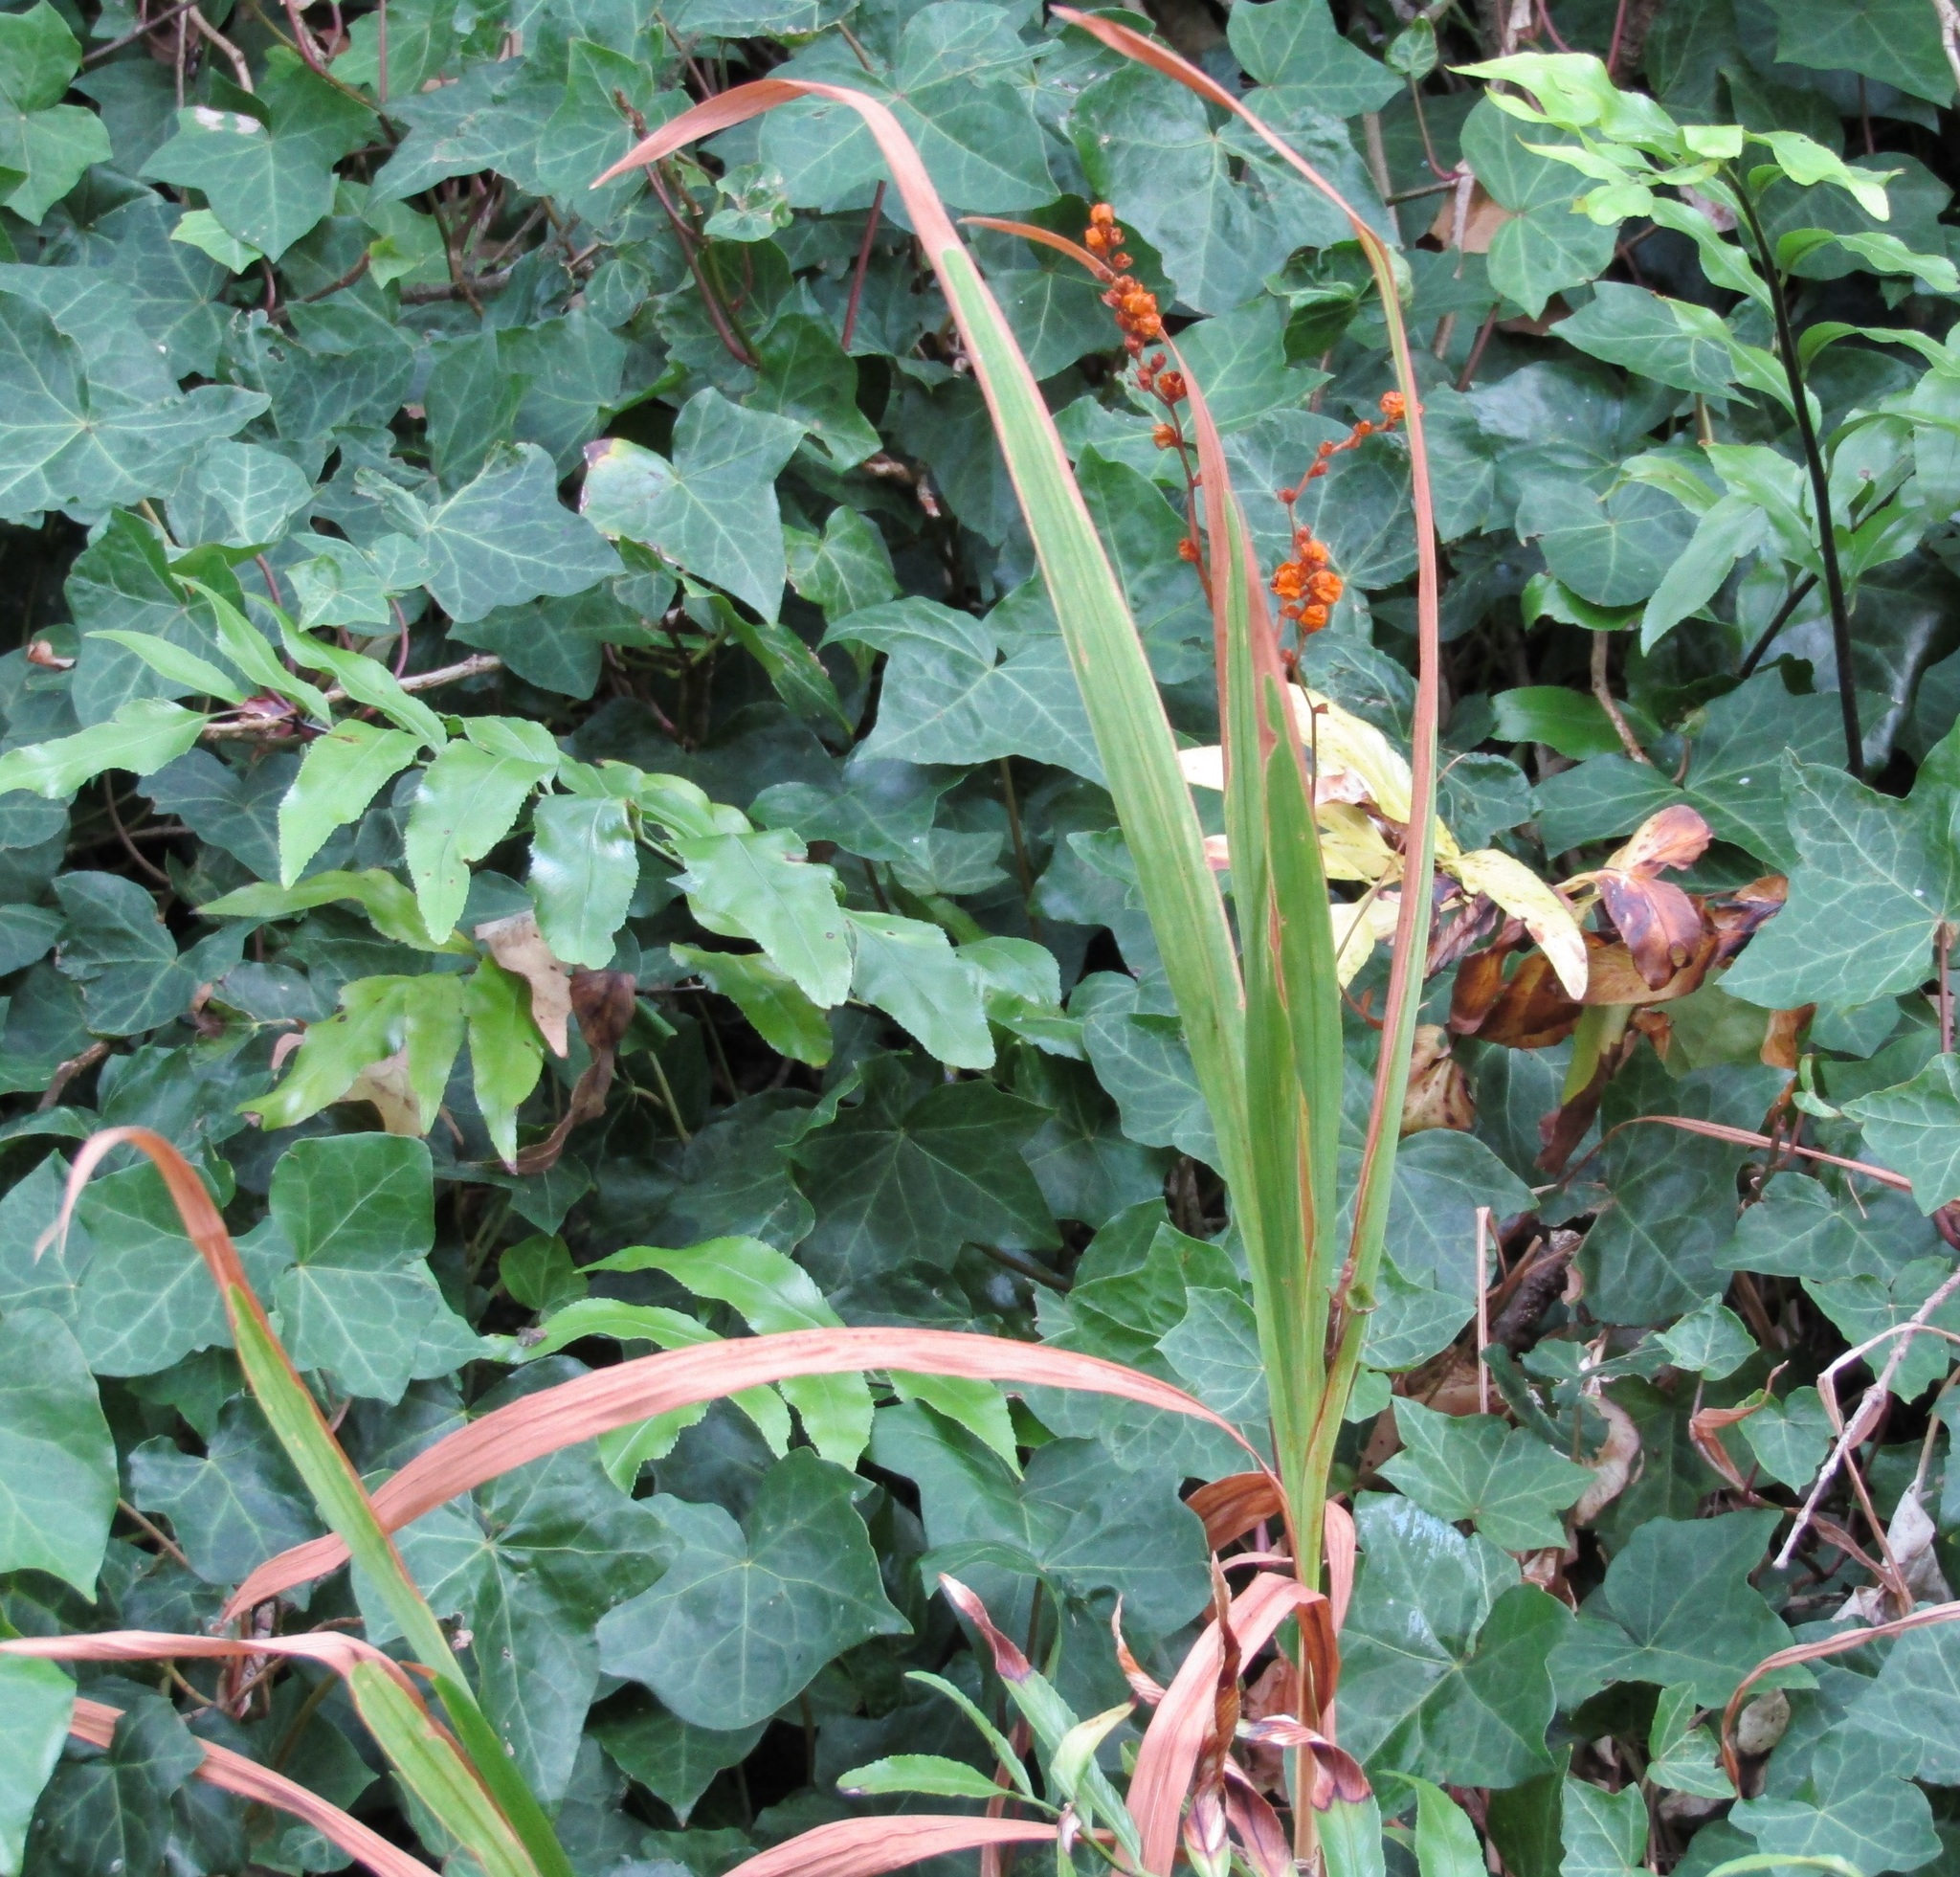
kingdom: Plantae
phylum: Tracheophyta
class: Liliopsida
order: Asparagales
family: Iridaceae
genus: Crocosmia
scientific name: Crocosmia crocosmiiflora
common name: Montbretia
